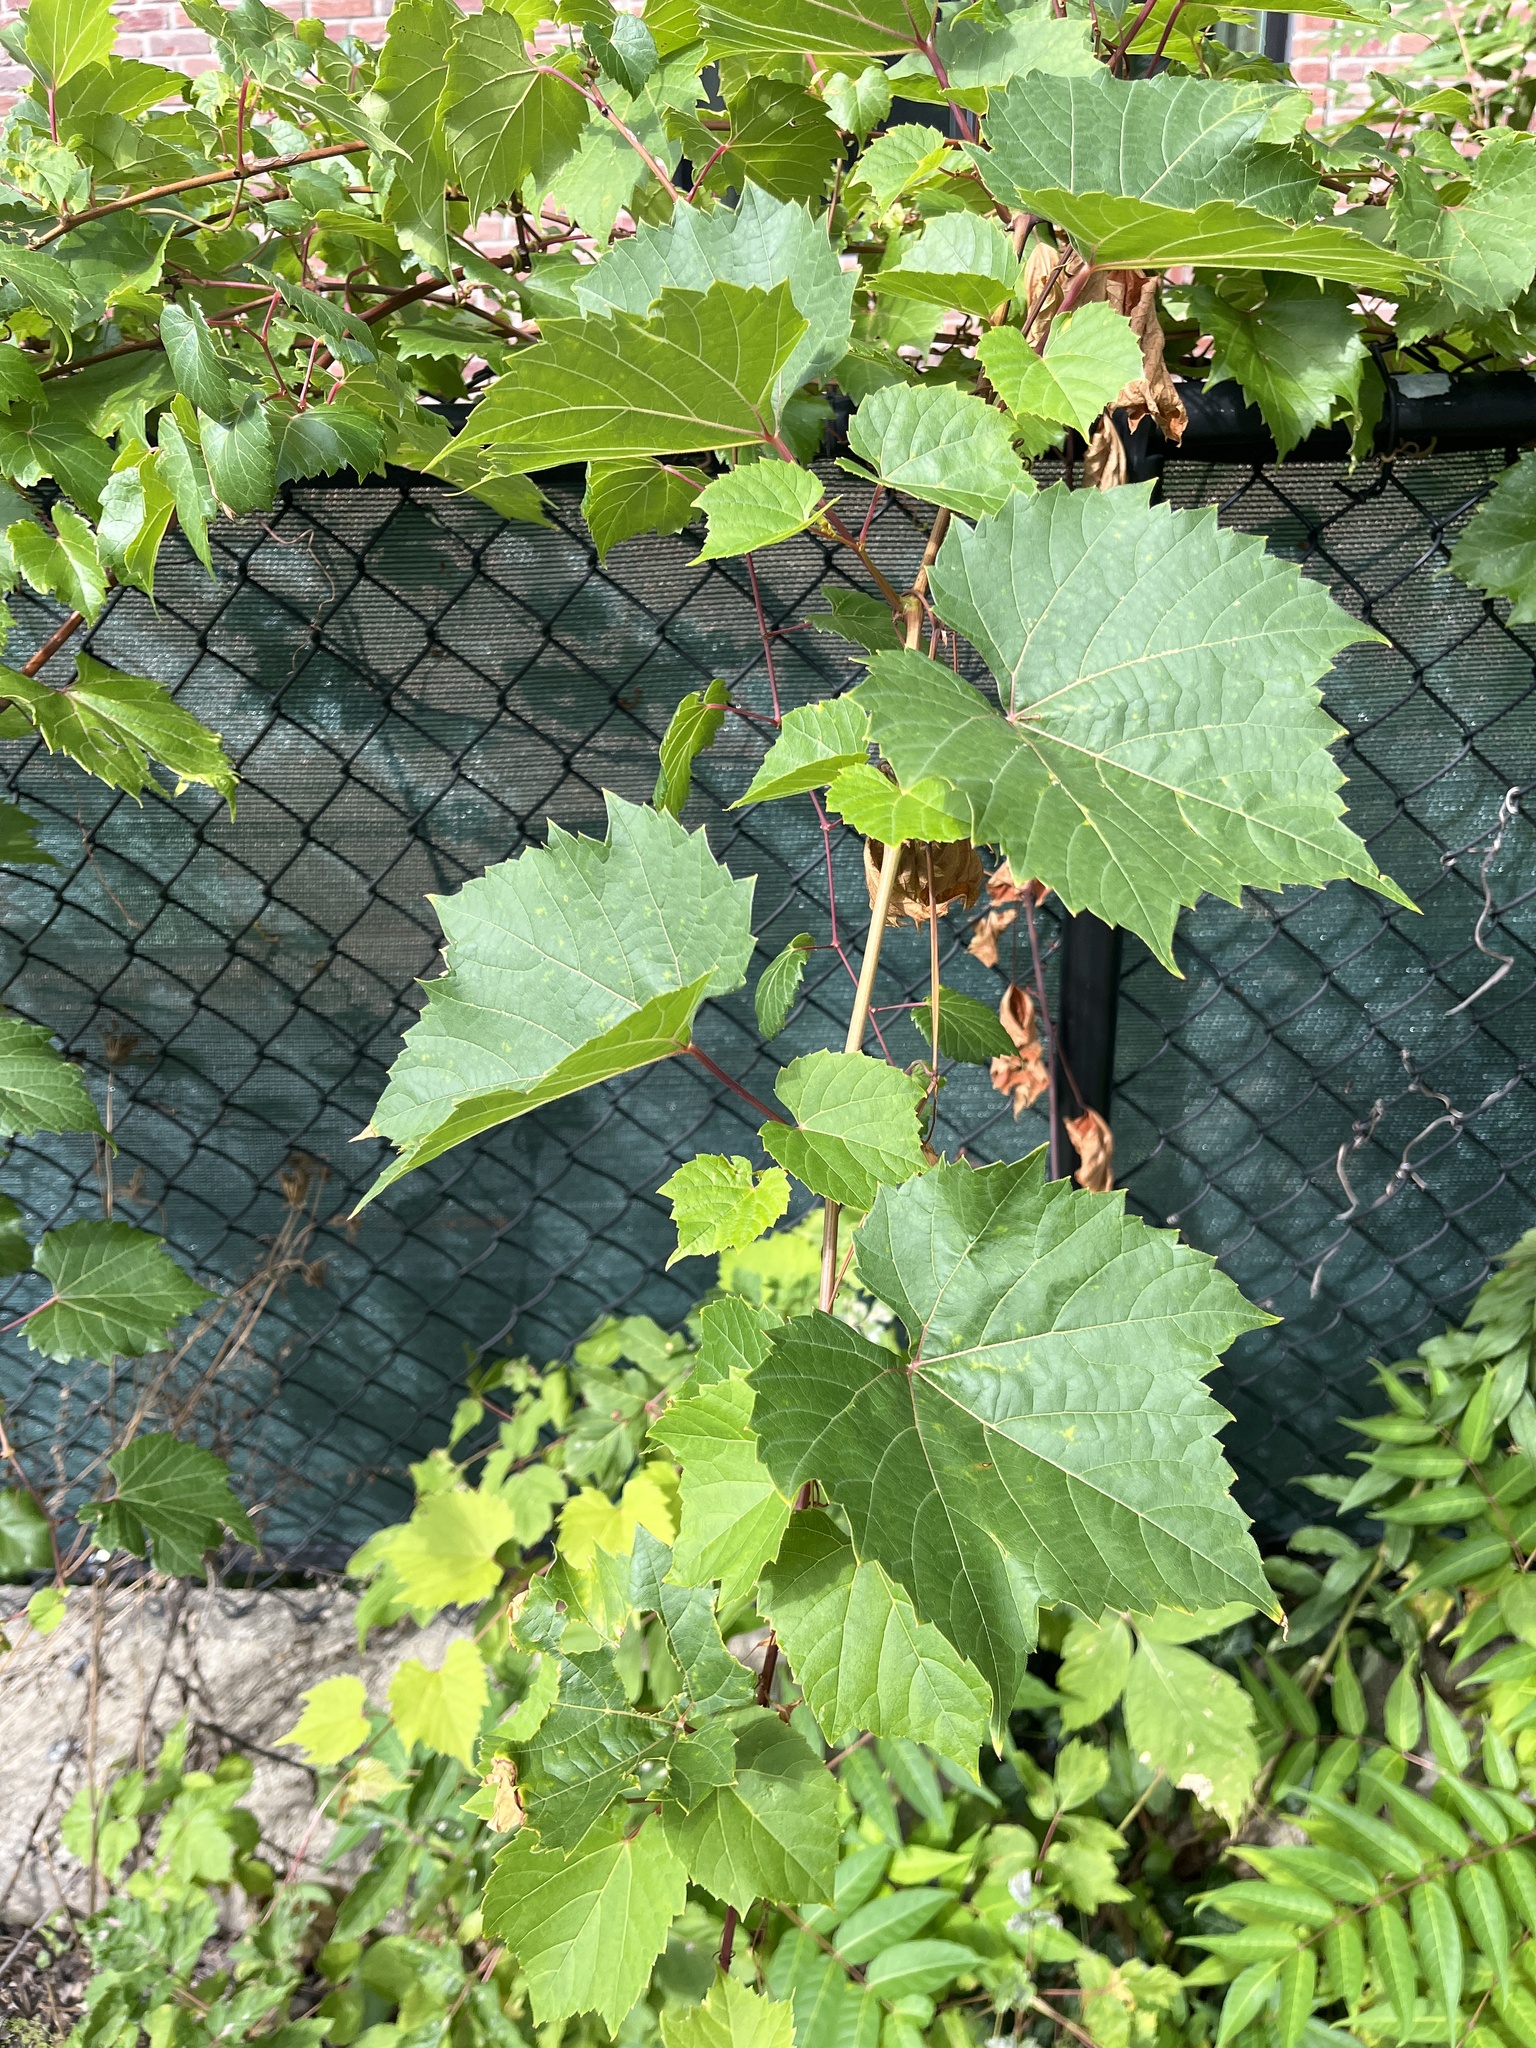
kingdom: Plantae
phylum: Tracheophyta
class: Magnoliopsida
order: Vitales
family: Vitaceae
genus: Vitis
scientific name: Vitis riparia
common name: Frost grape
